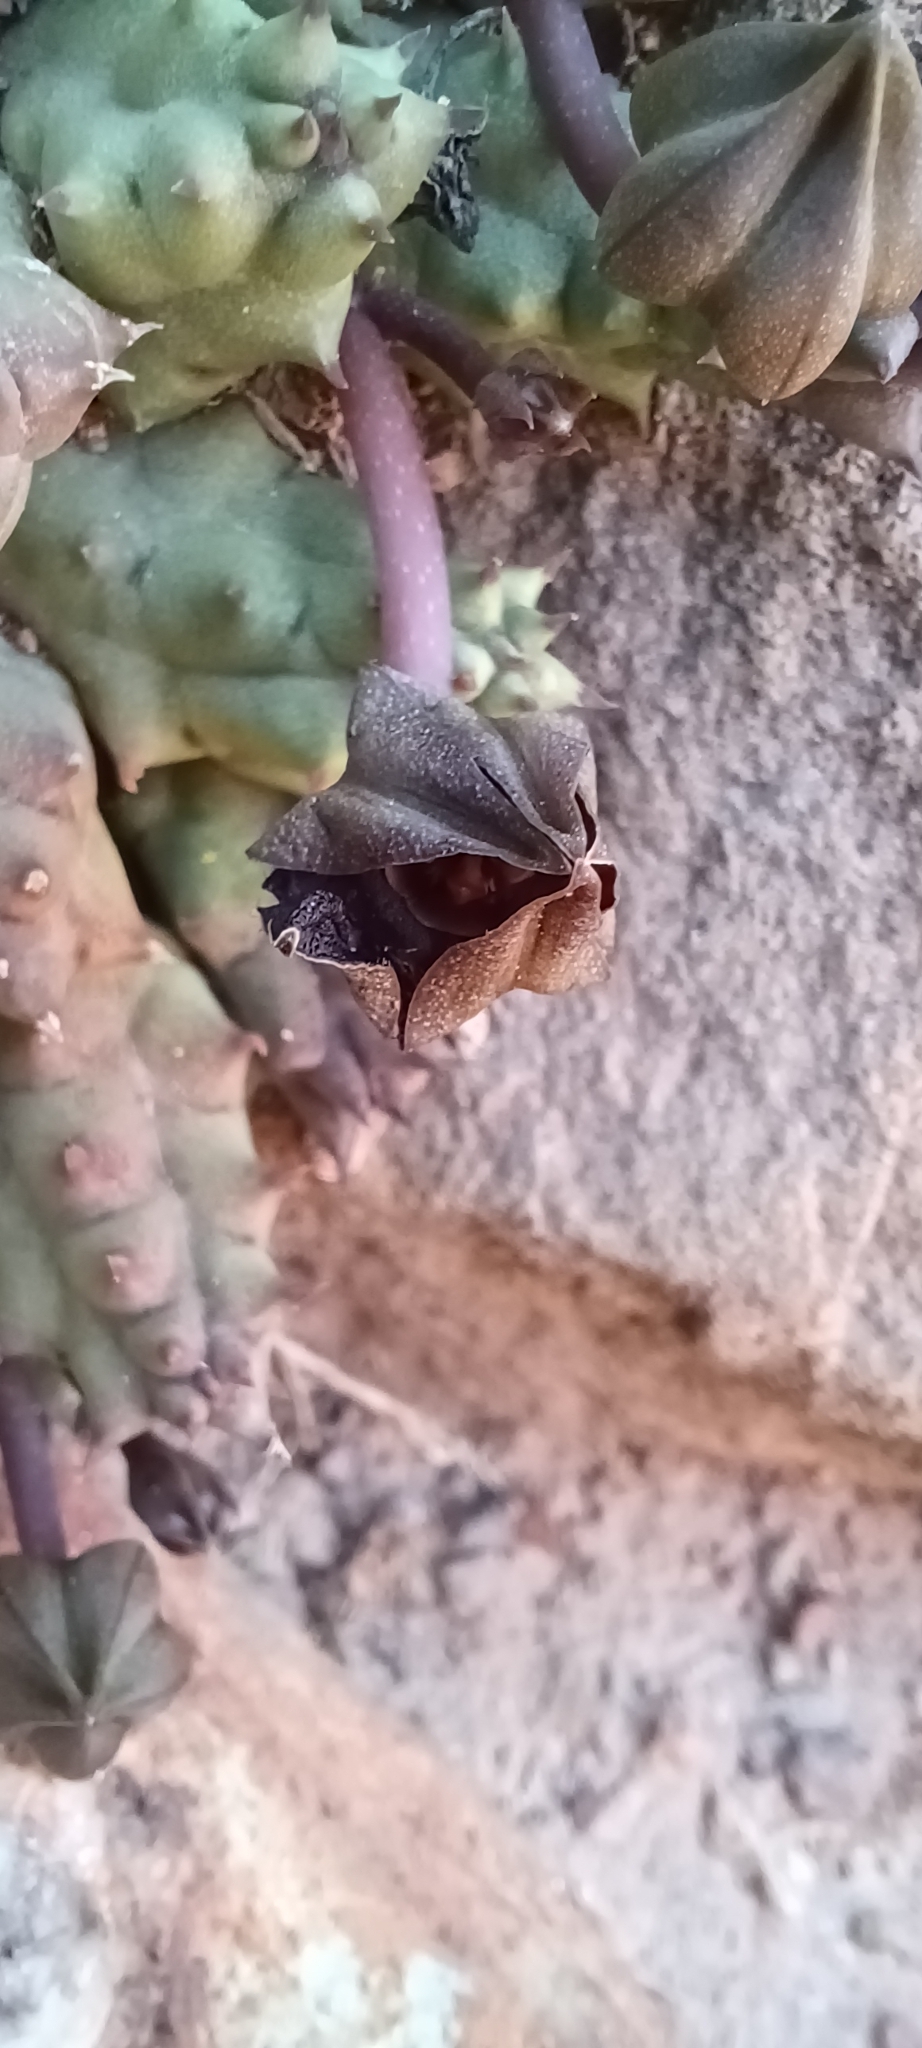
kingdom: Plantae
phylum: Tracheophyta
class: Magnoliopsida
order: Gentianales
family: Apocynaceae
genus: Ceropegia
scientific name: Ceropegia caespitosa
